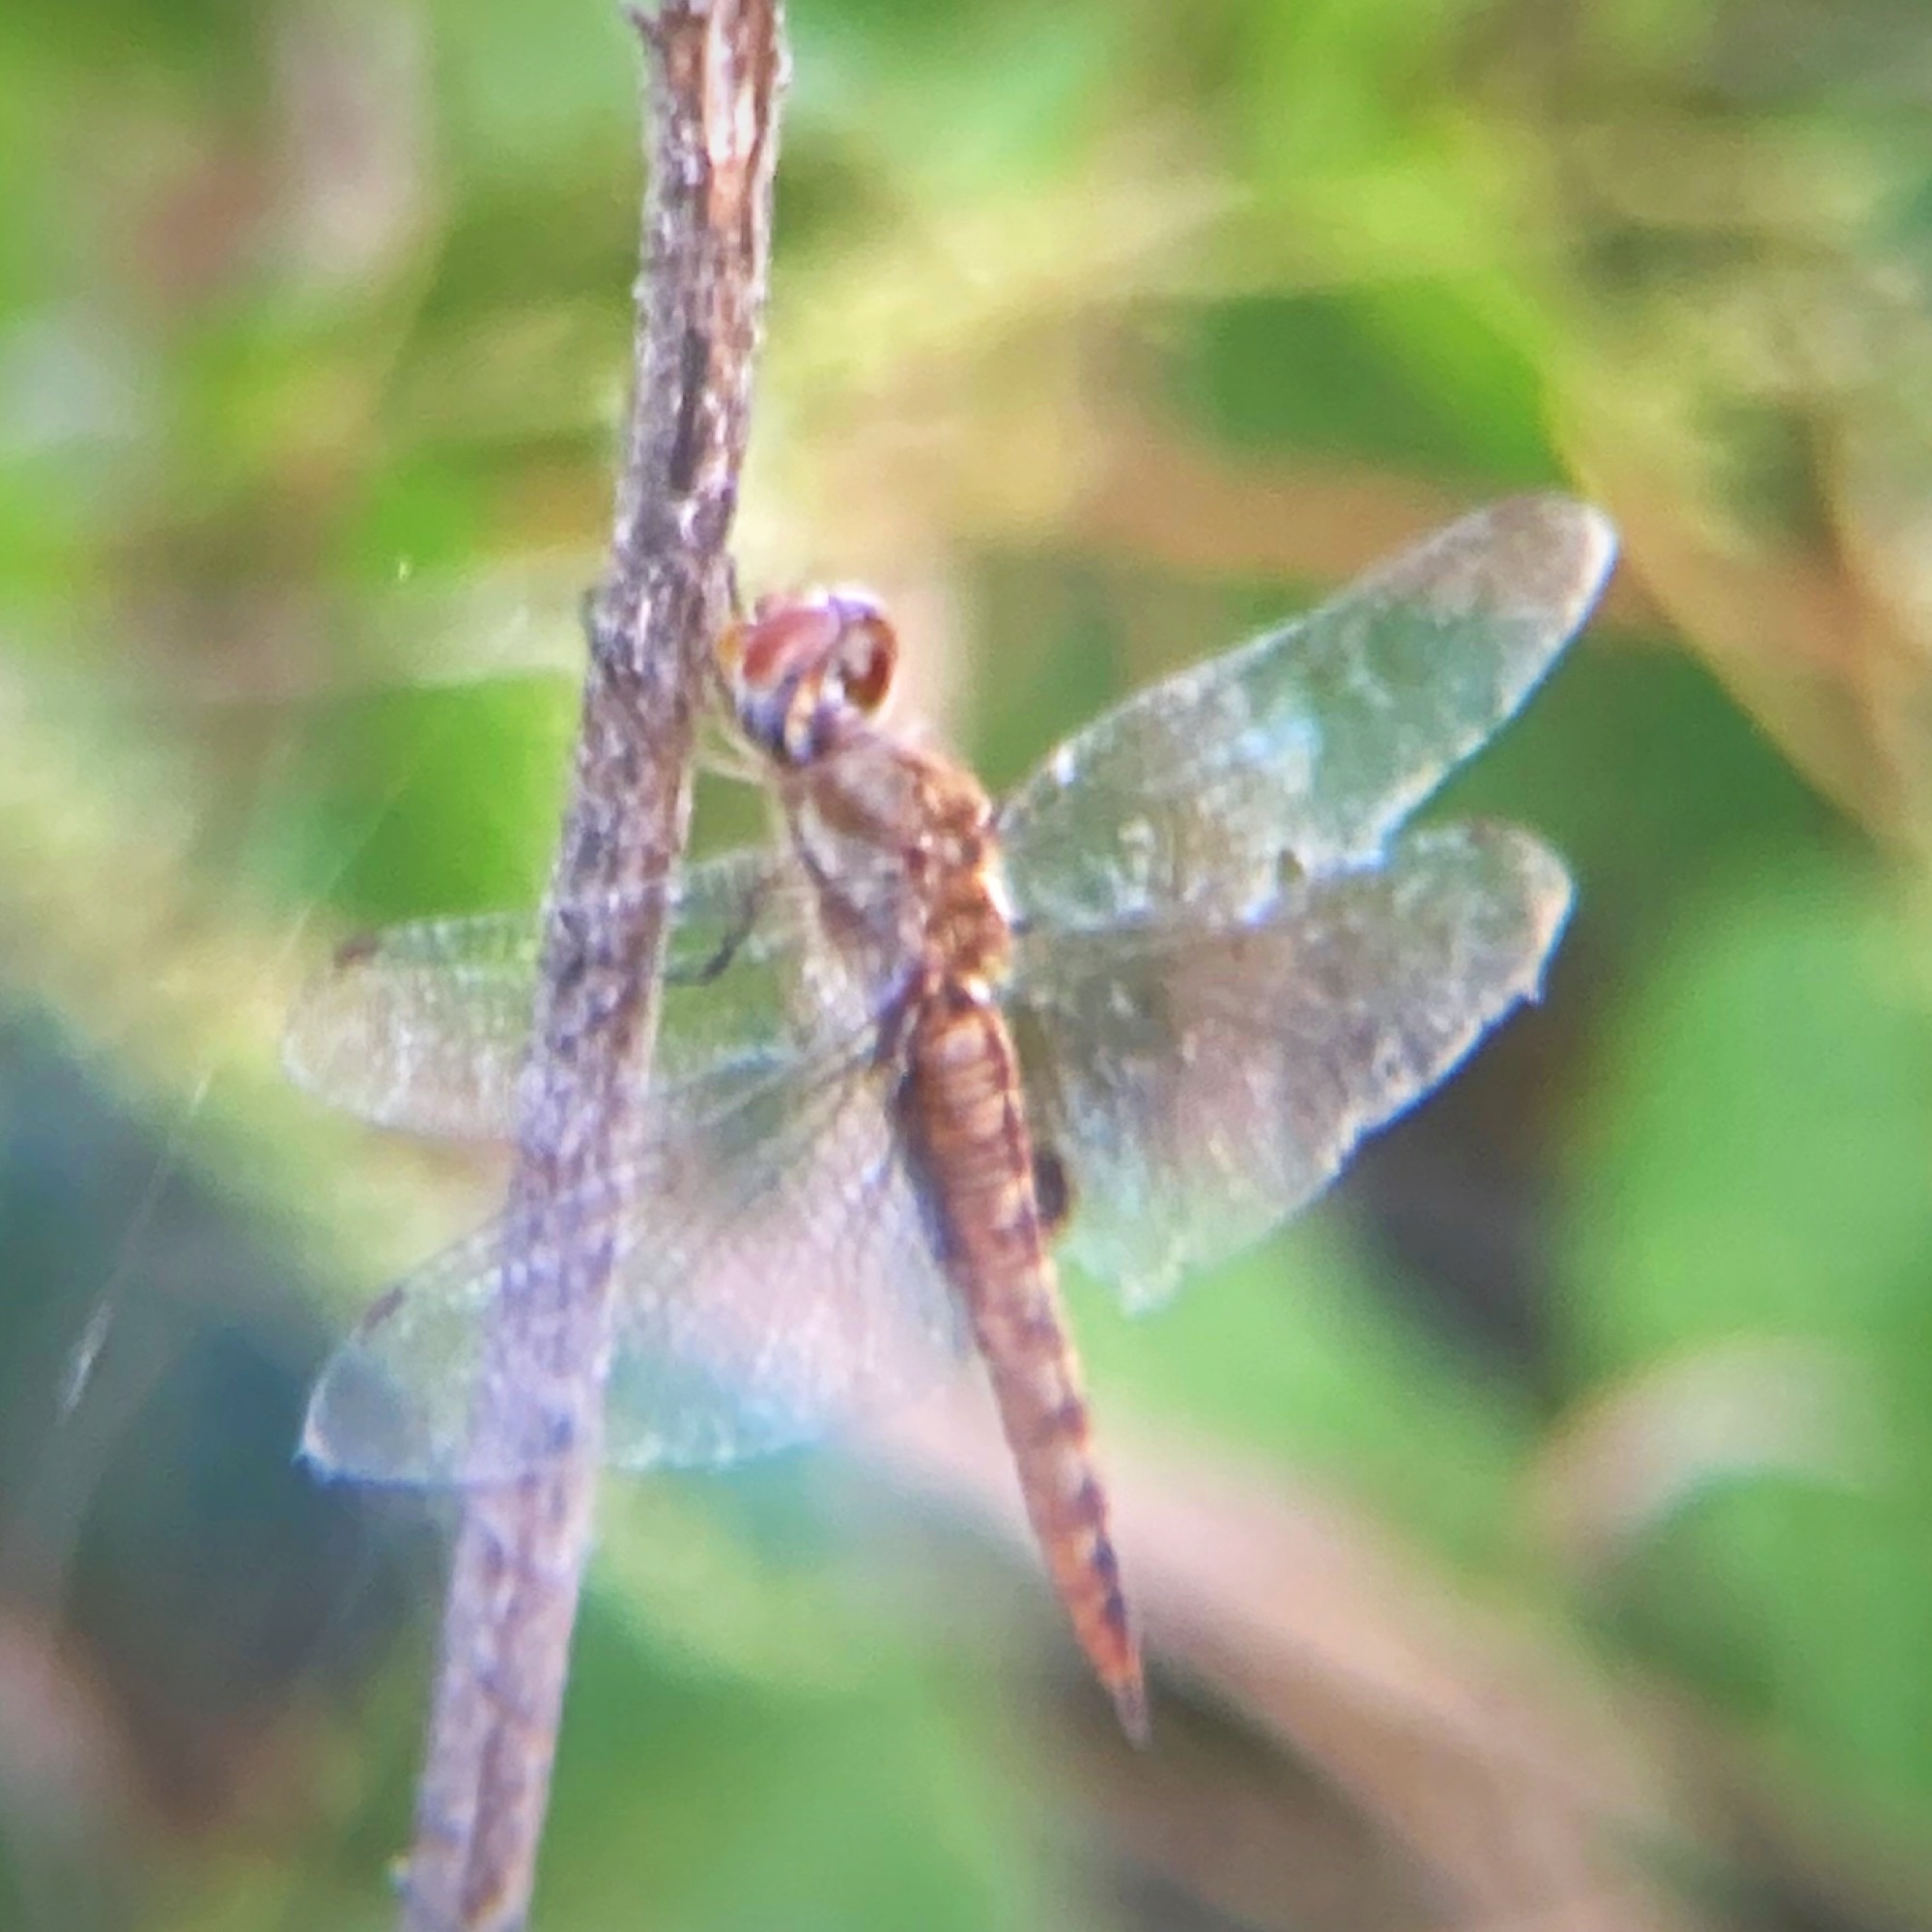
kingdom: Animalia
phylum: Arthropoda
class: Insecta
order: Odonata
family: Libellulidae
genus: Pantala
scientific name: Pantala hymenaea
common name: Spot-winged glider
